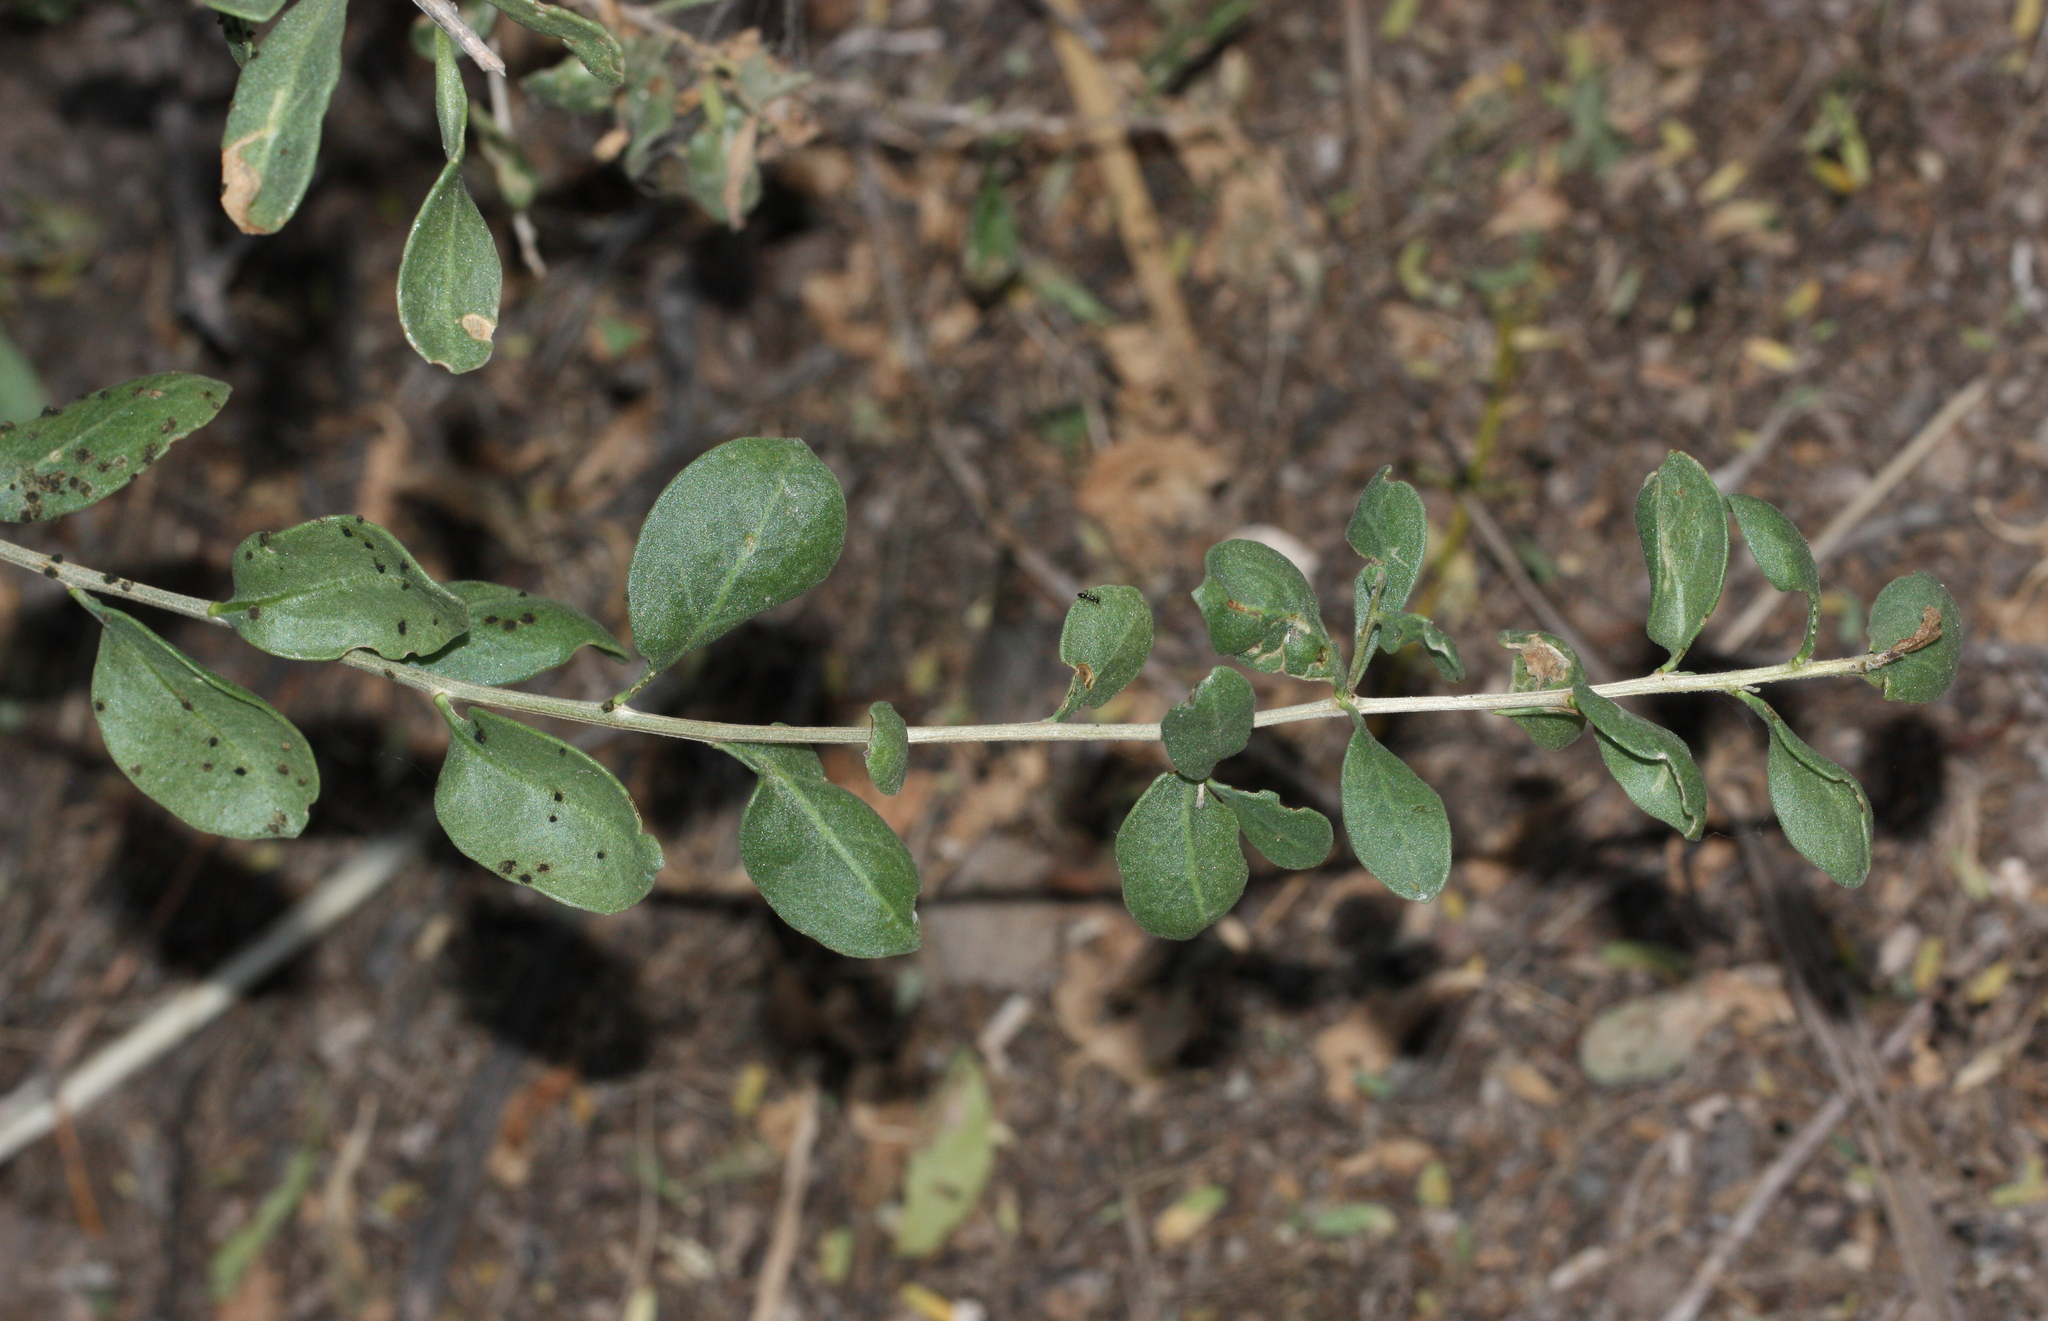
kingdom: Animalia
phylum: Arthropoda
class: Insecta
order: Lepidoptera
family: Crambidae
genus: Loxostege
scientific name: Loxostege allectalis
